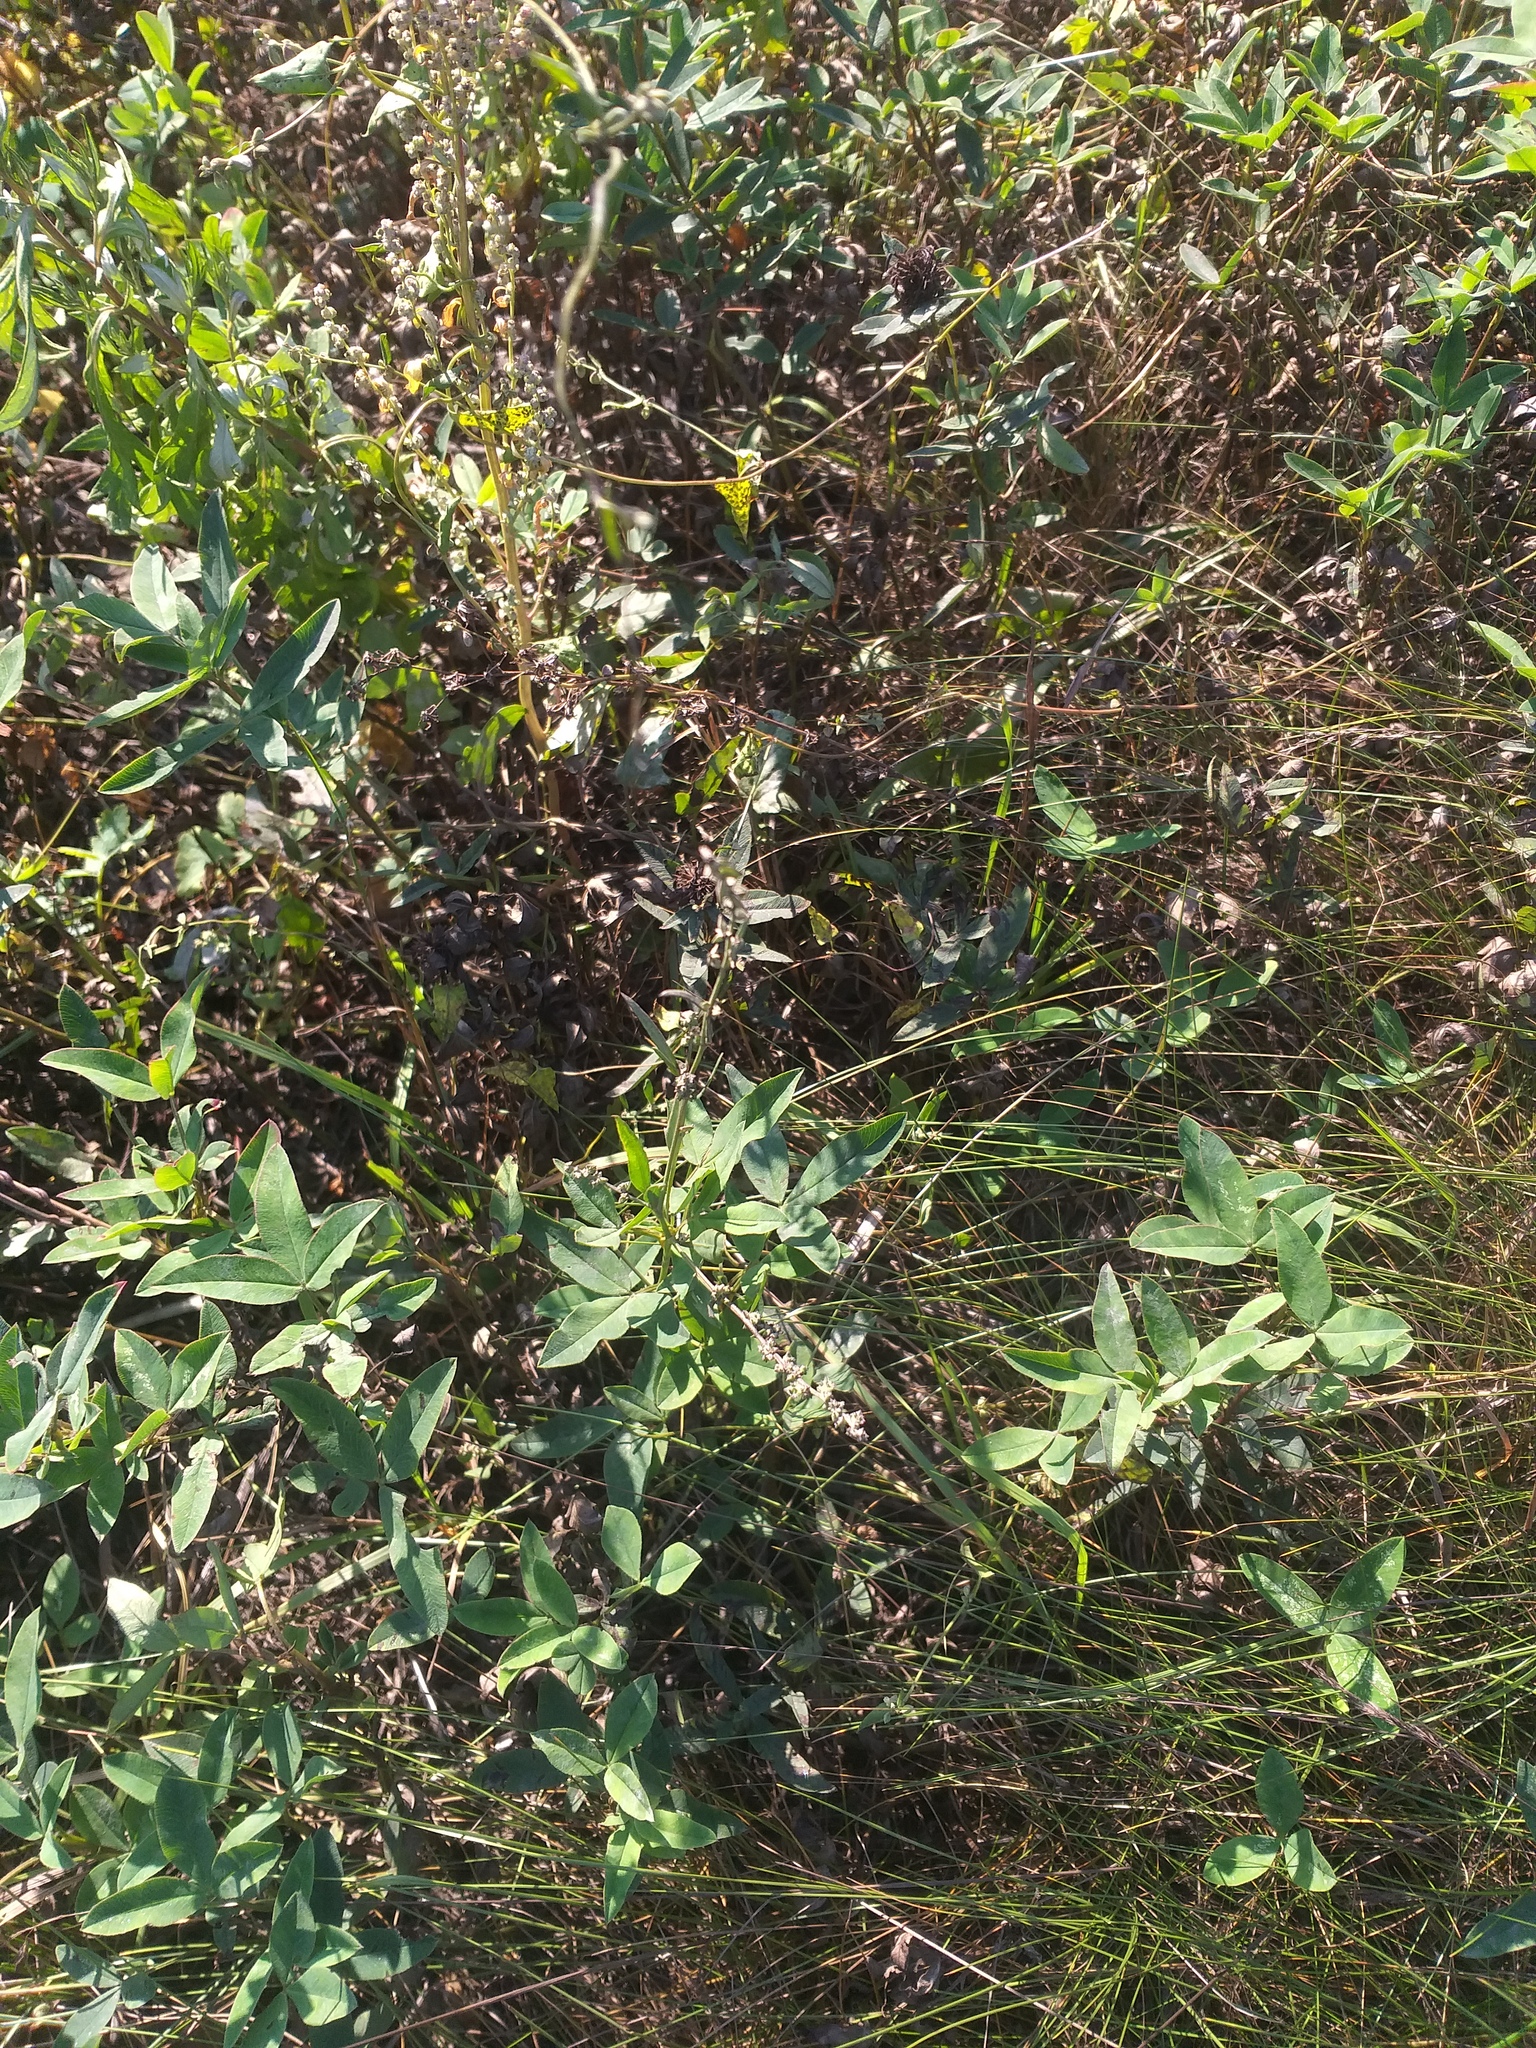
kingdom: Plantae
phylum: Tracheophyta
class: Magnoliopsida
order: Caryophyllales
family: Amaranthaceae
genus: Atriplex
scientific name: Atriplex oblongifolia
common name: Oblongleaf orache
